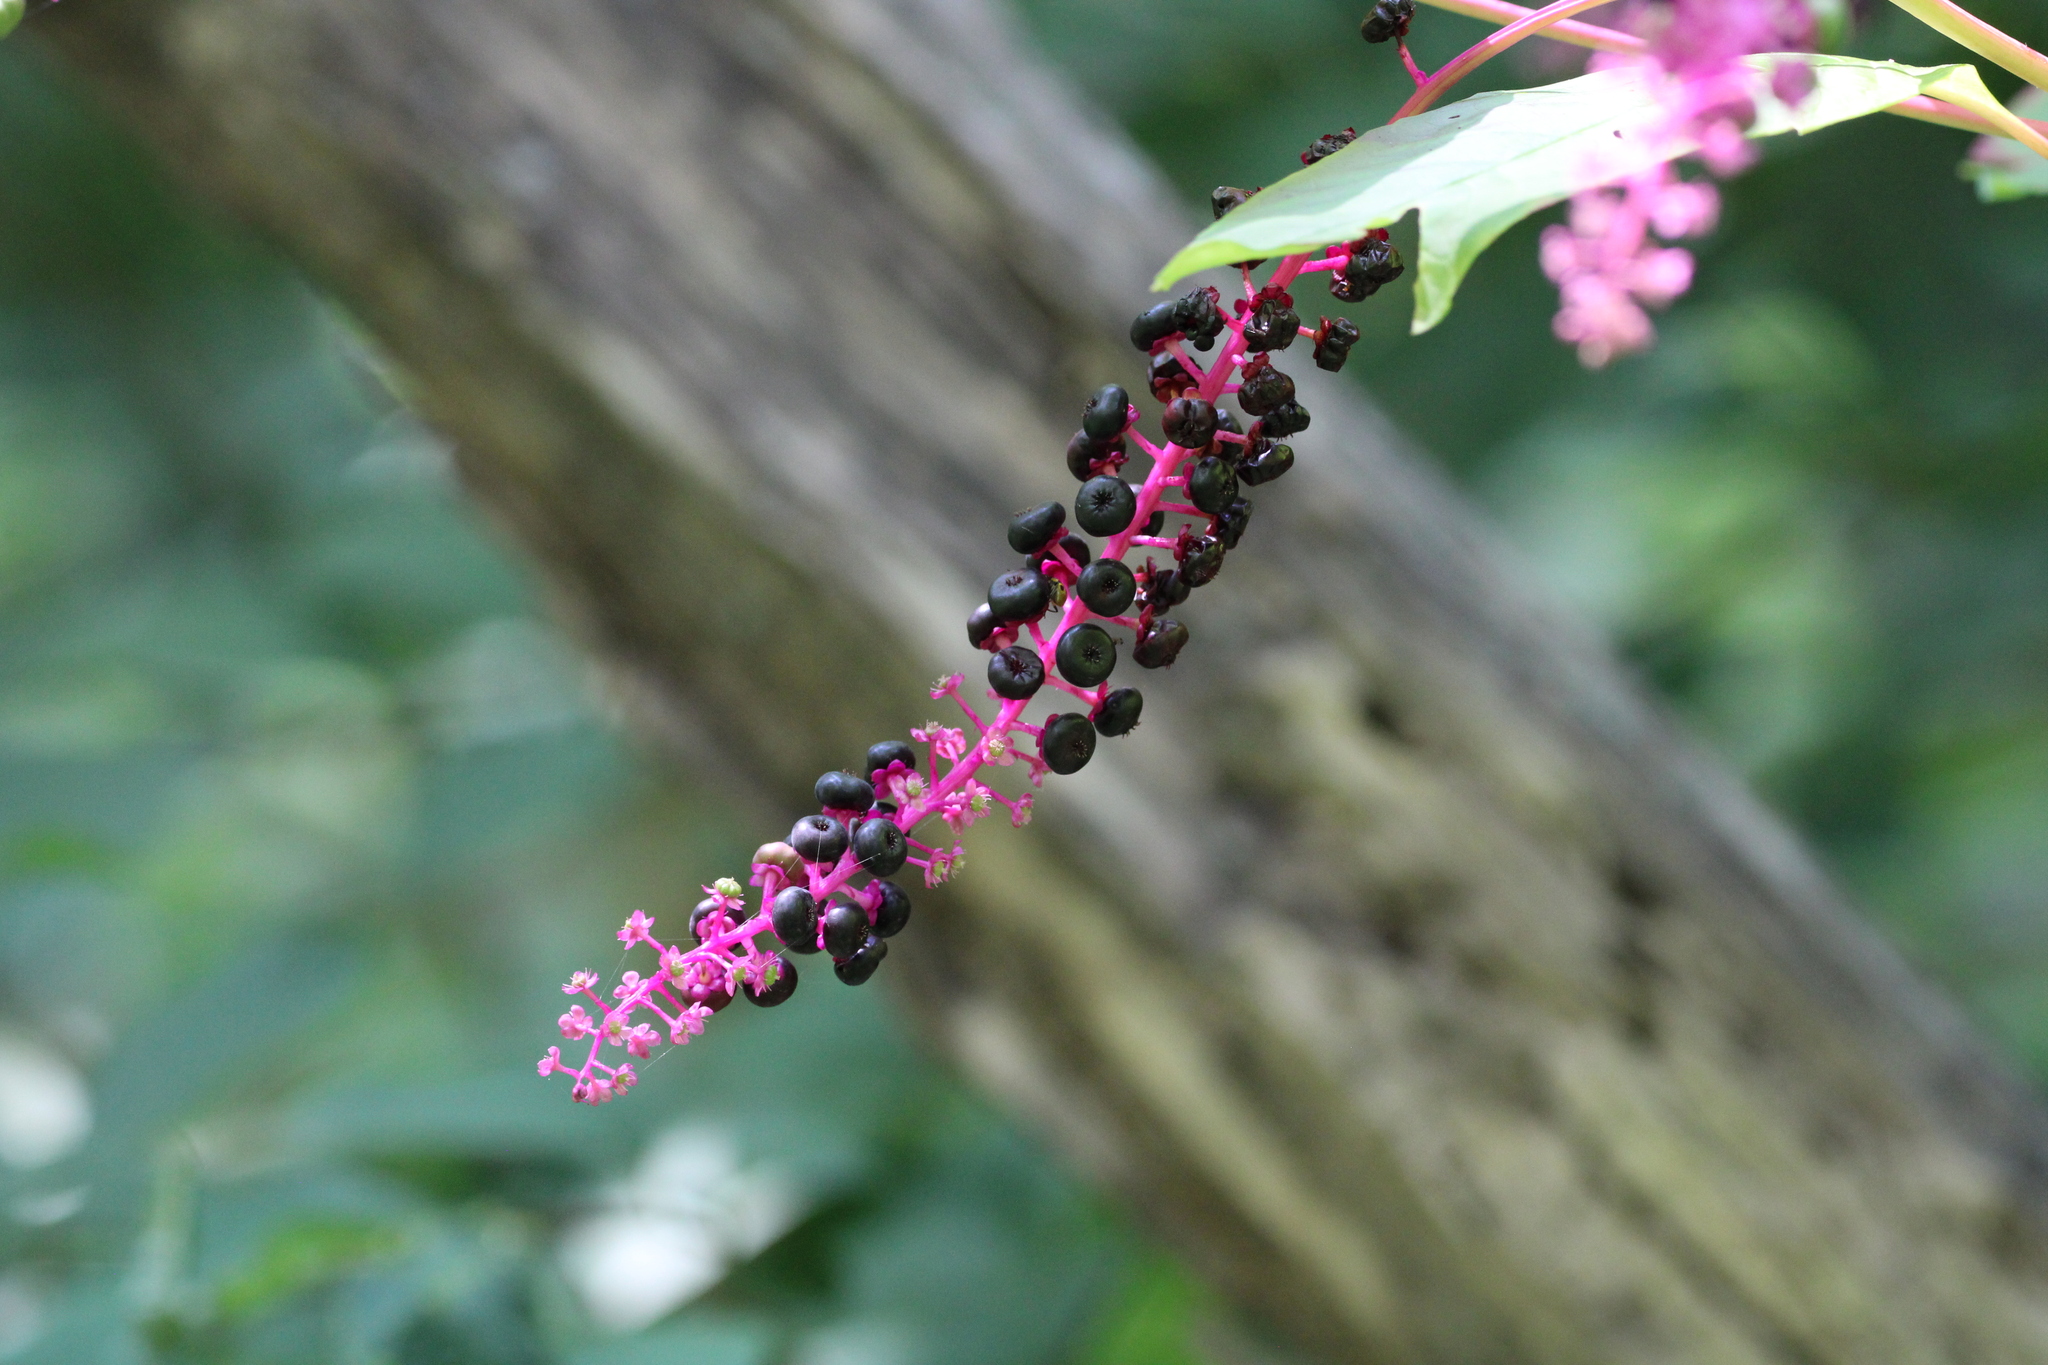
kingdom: Plantae
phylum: Tracheophyta
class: Magnoliopsida
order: Caryophyllales
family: Phytolaccaceae
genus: Phytolacca
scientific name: Phytolacca americana
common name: American pokeweed
